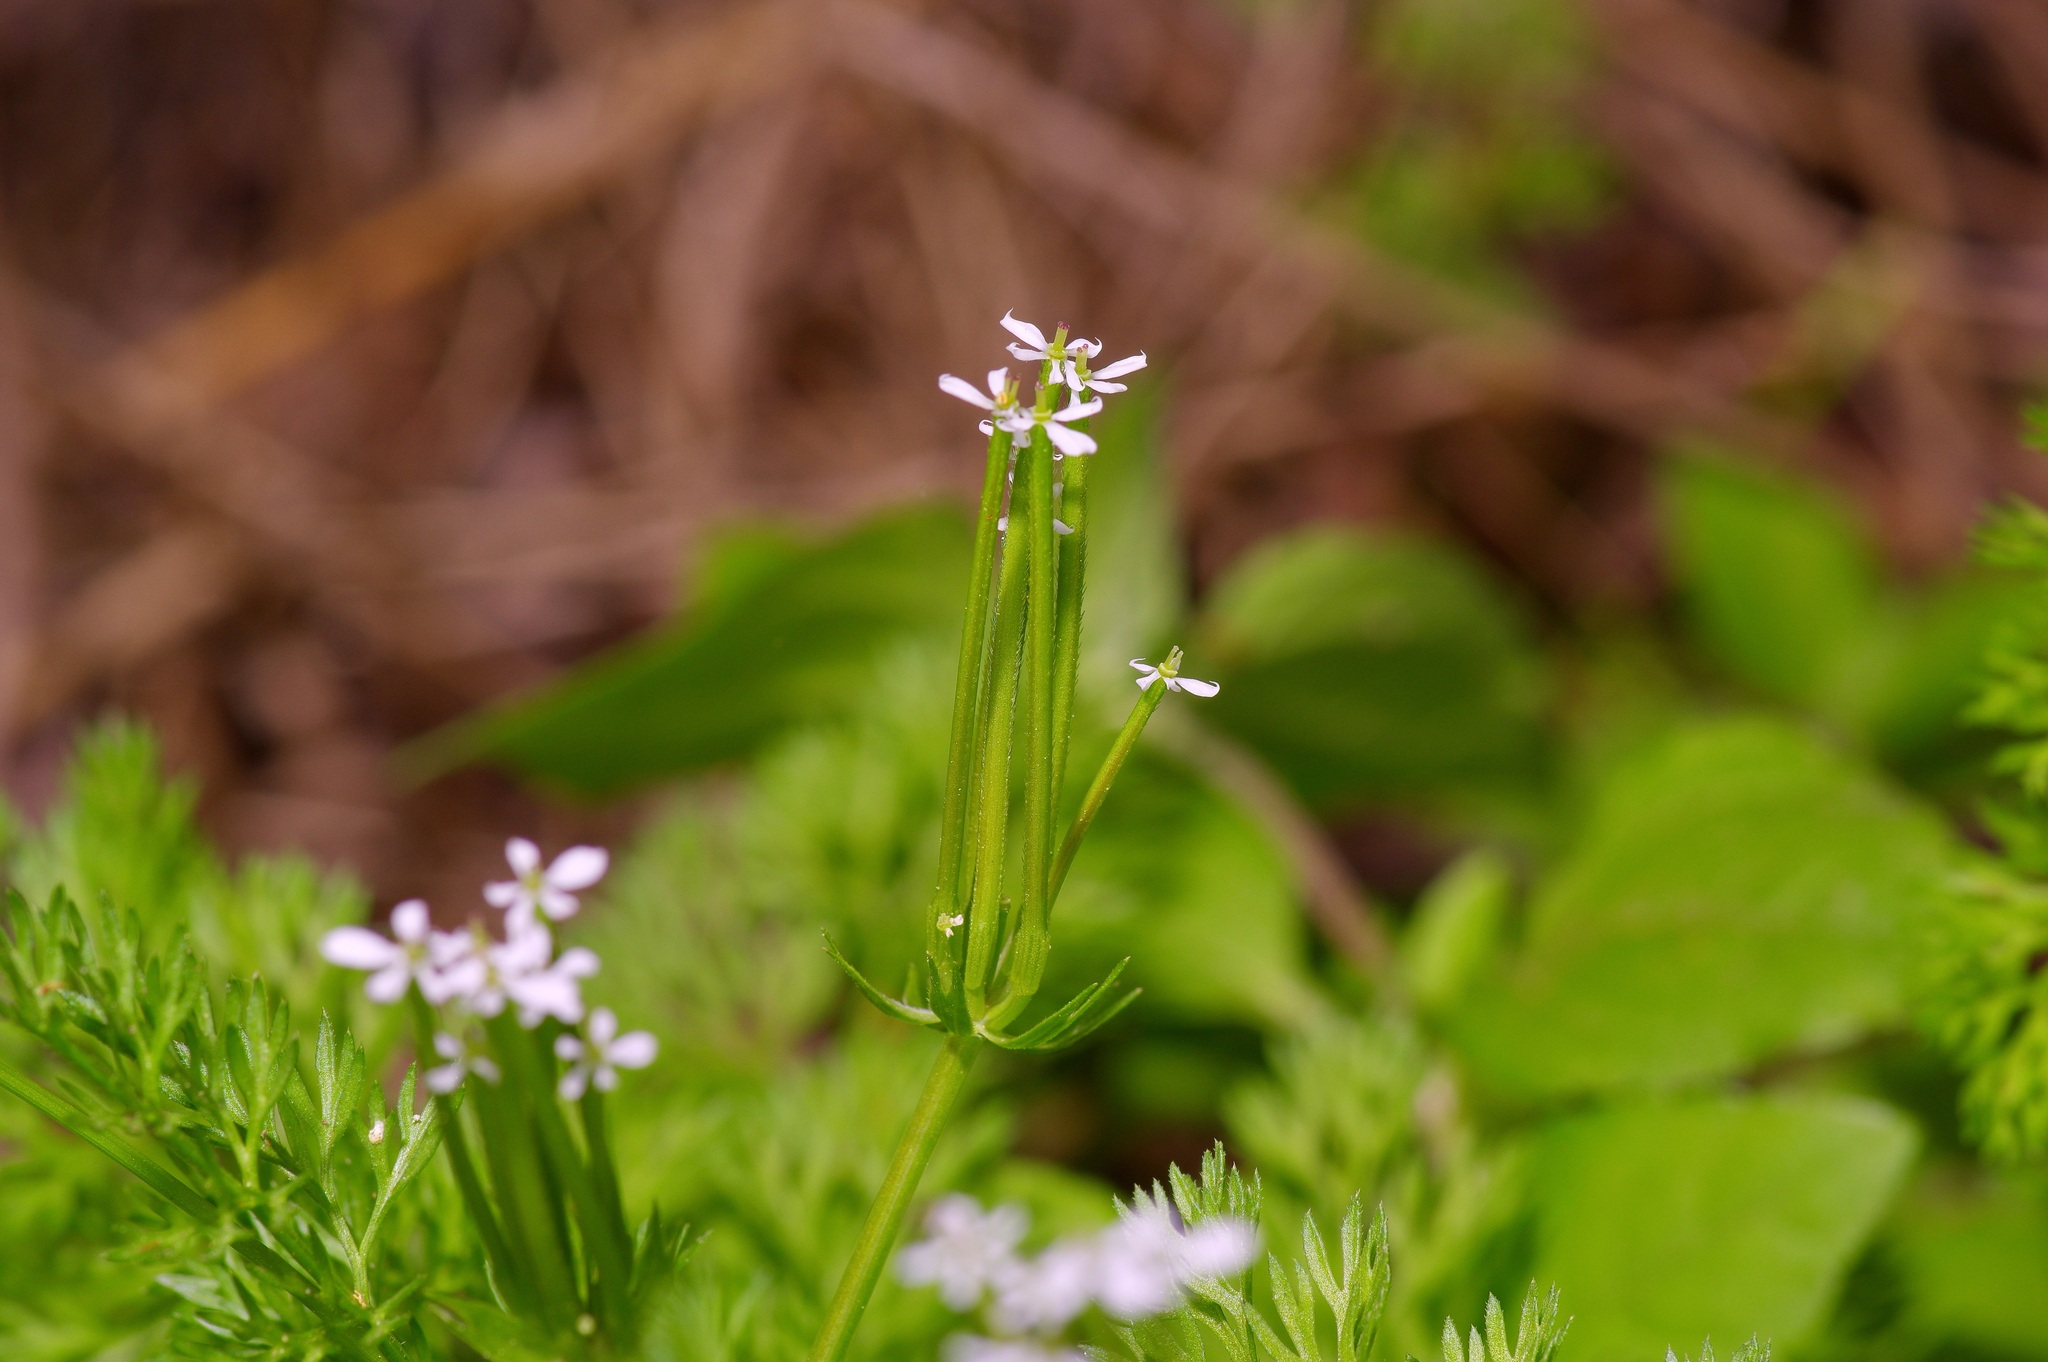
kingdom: Plantae
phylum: Tracheophyta
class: Magnoliopsida
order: Apiales
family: Apiaceae
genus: Scandix
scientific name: Scandix pecten-veneris
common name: Shepherd's-needle
